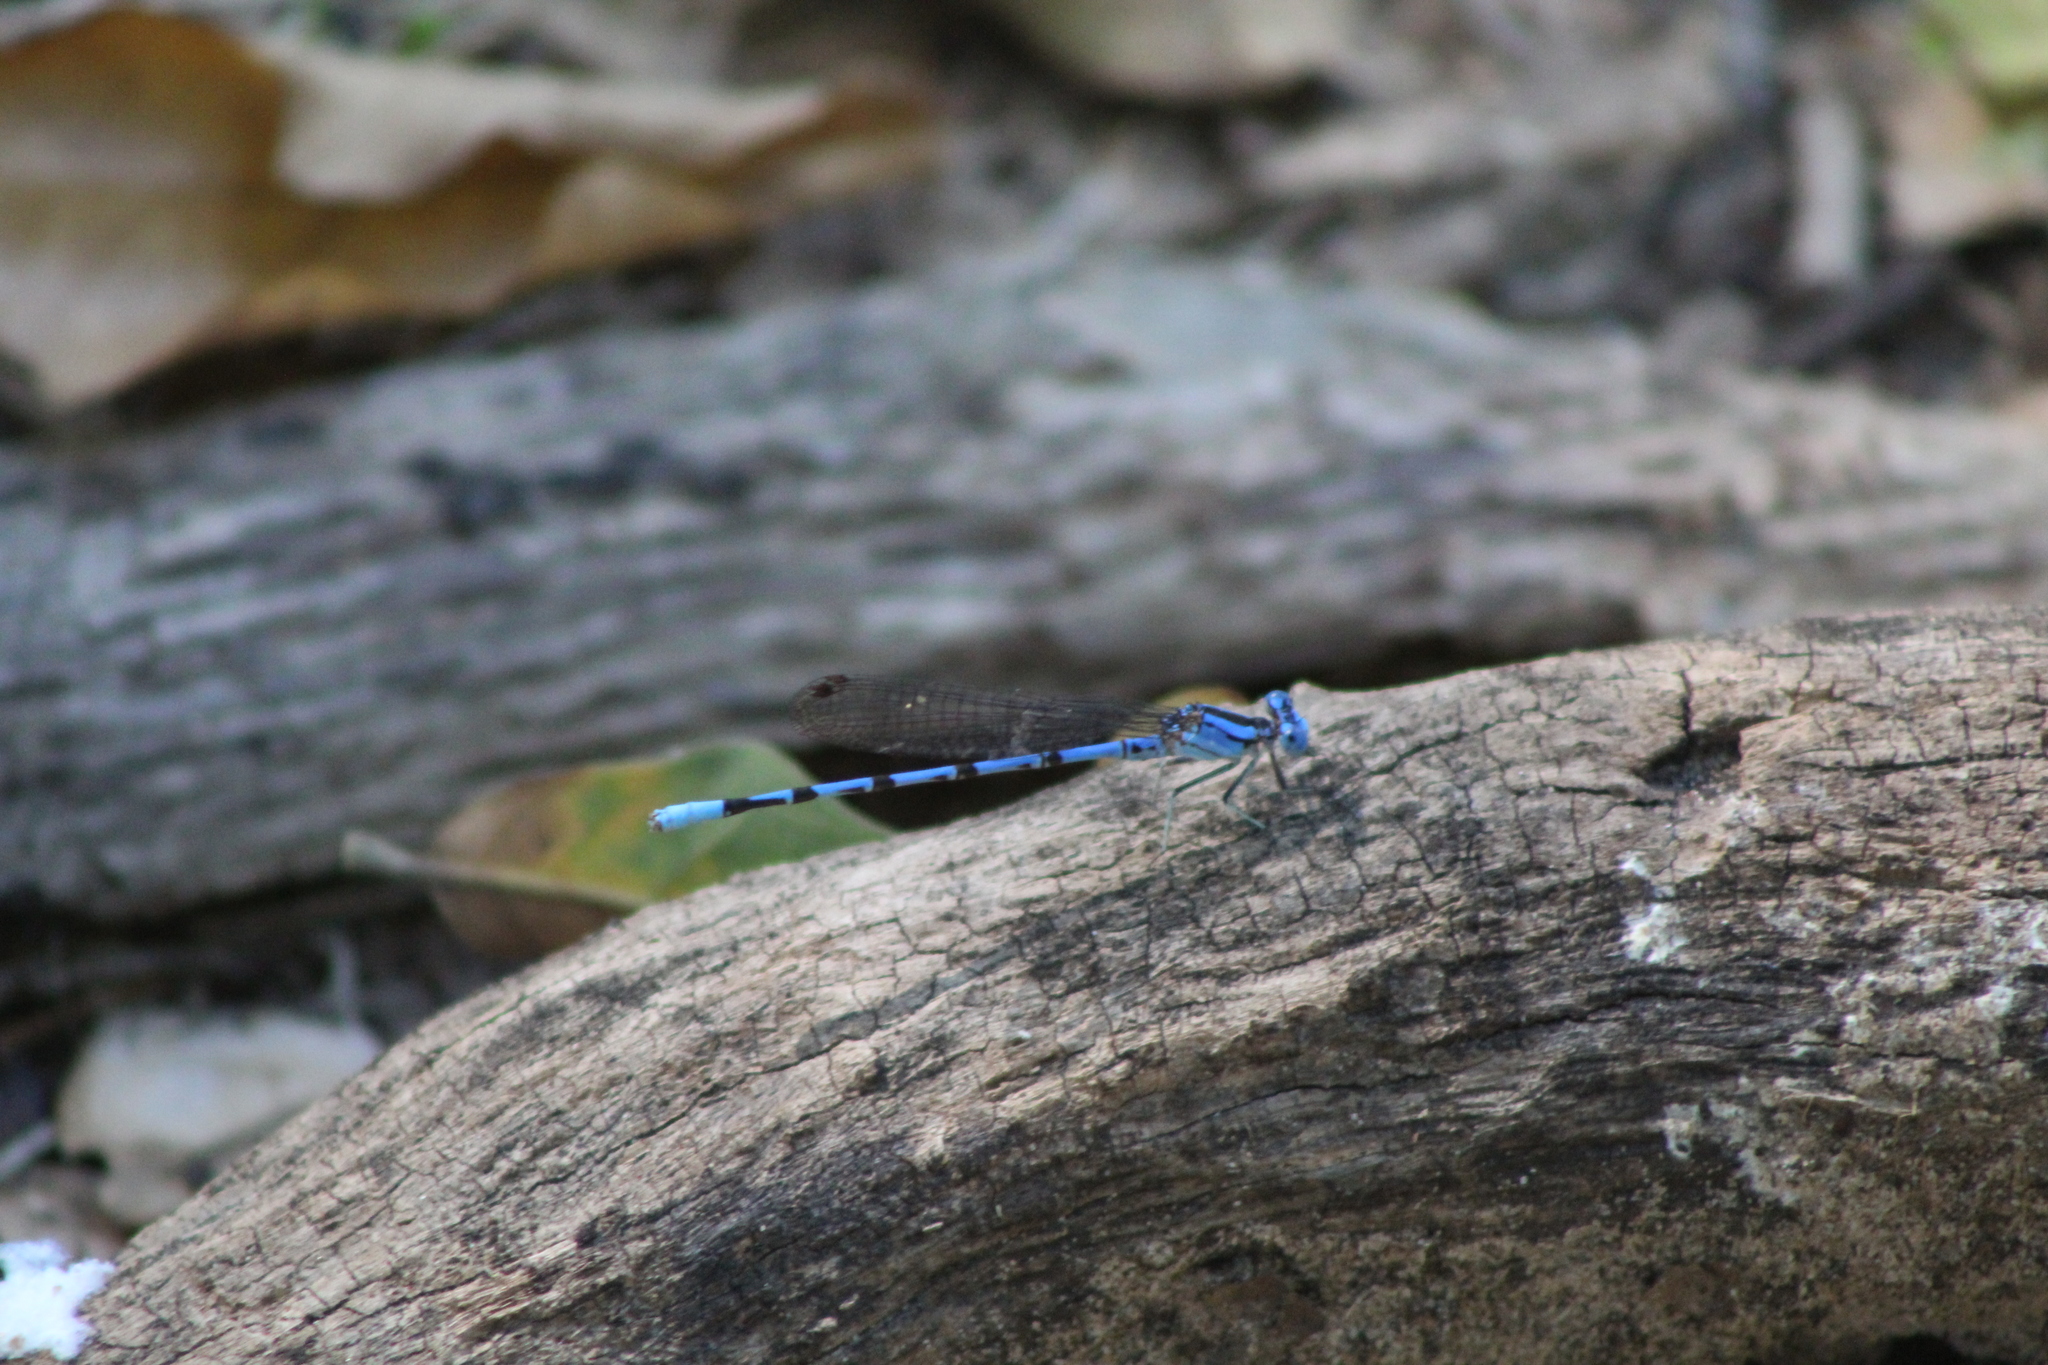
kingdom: Animalia
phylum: Arthropoda
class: Insecta
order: Odonata
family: Coenagrionidae
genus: Argia
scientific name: Argia funebris
